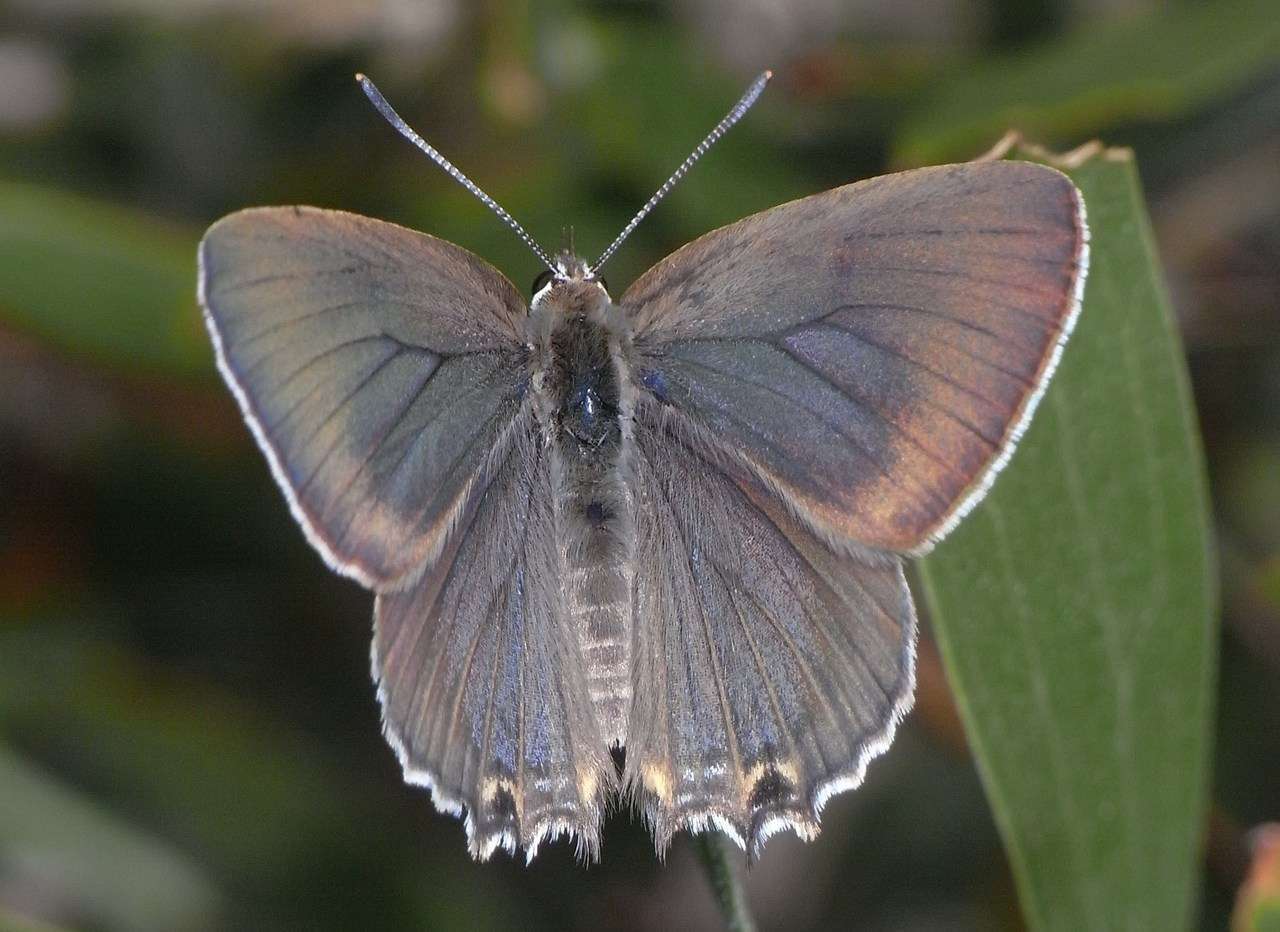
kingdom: Animalia
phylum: Arthropoda
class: Insecta
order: Lepidoptera
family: Lycaenidae
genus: Jalmenus
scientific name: Jalmenus icilius
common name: Amethyst hairstreak
